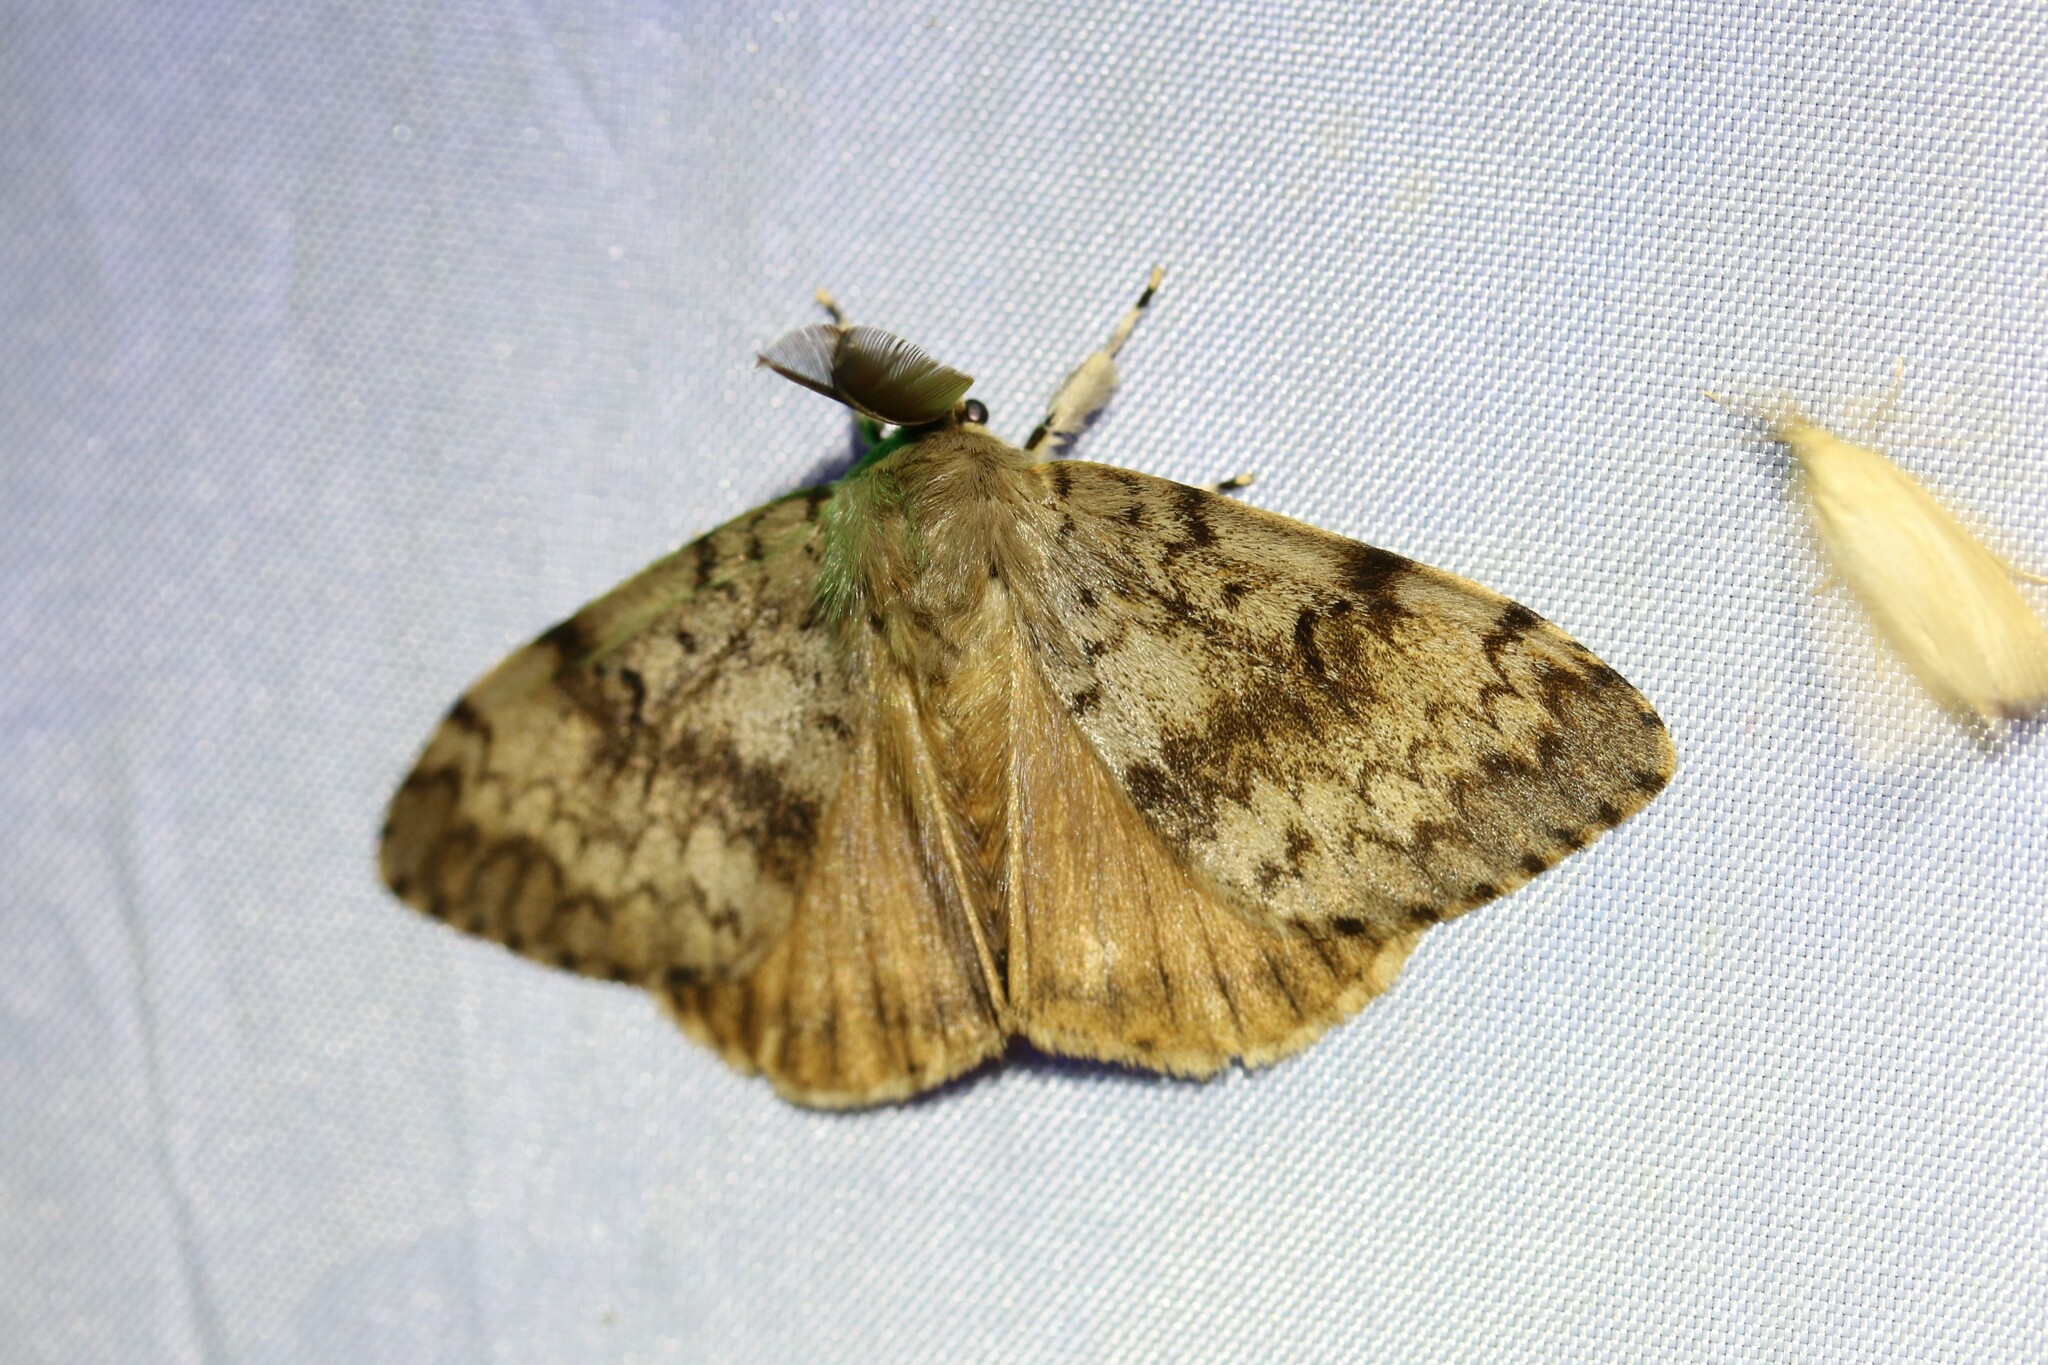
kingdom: Animalia
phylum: Arthropoda
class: Insecta
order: Lepidoptera
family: Erebidae
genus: Lymantria
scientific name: Lymantria dispar
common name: Gypsy moth
